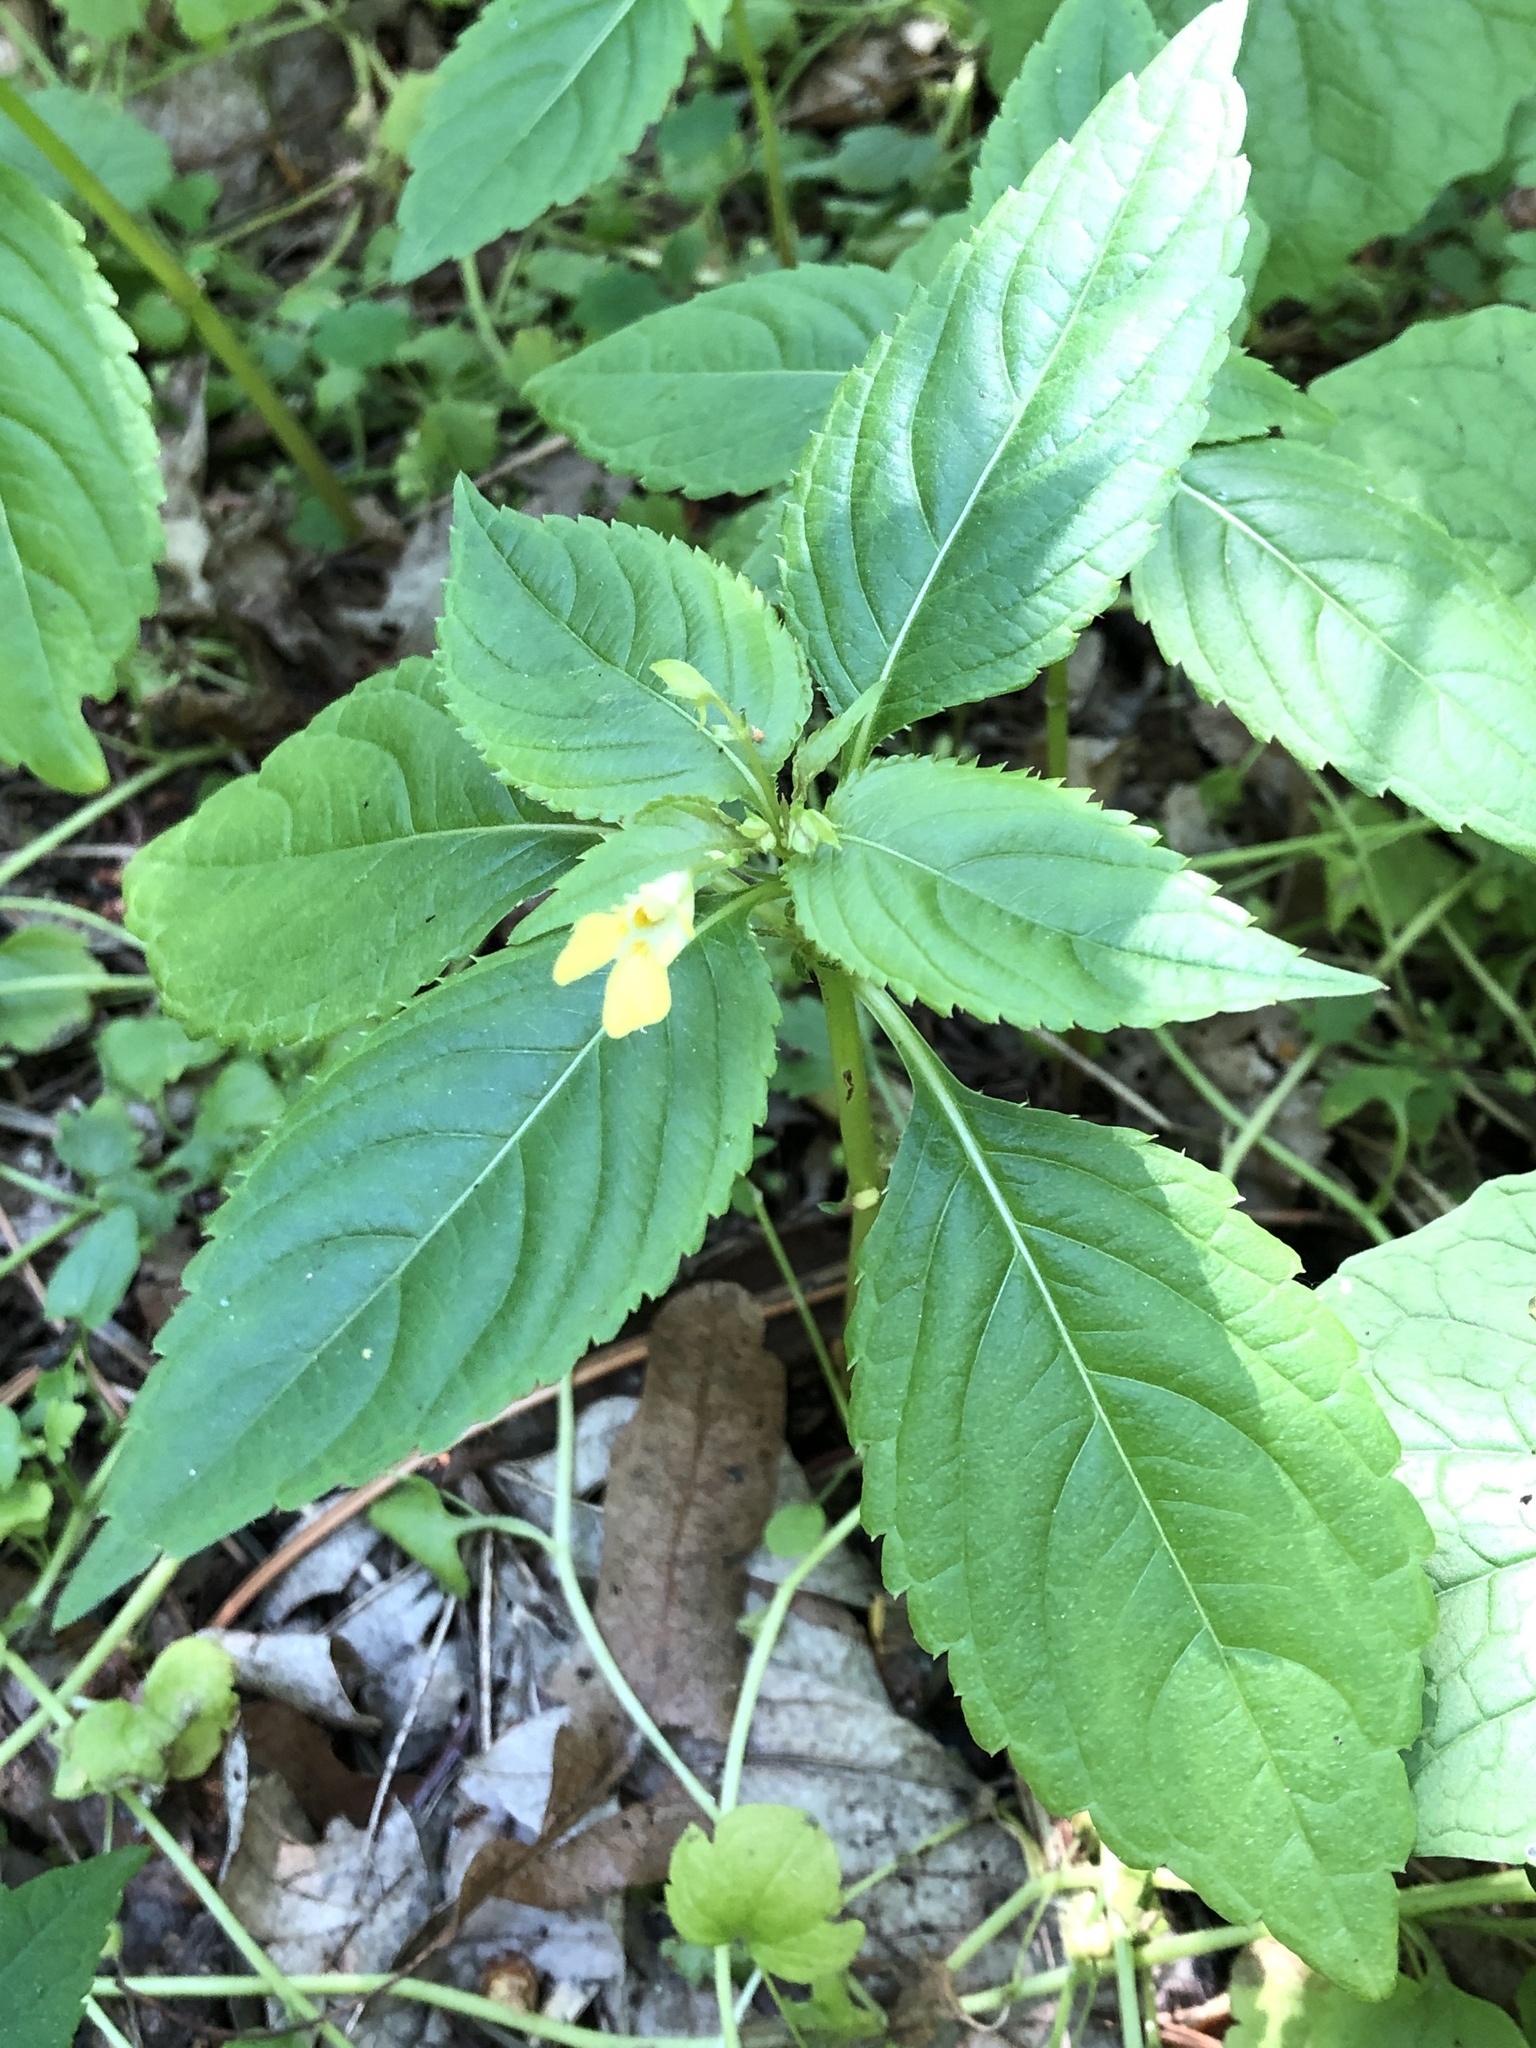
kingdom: Plantae
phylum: Tracheophyta
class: Magnoliopsida
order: Ericales
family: Balsaminaceae
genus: Impatiens
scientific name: Impatiens parviflora
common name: Small balsam
